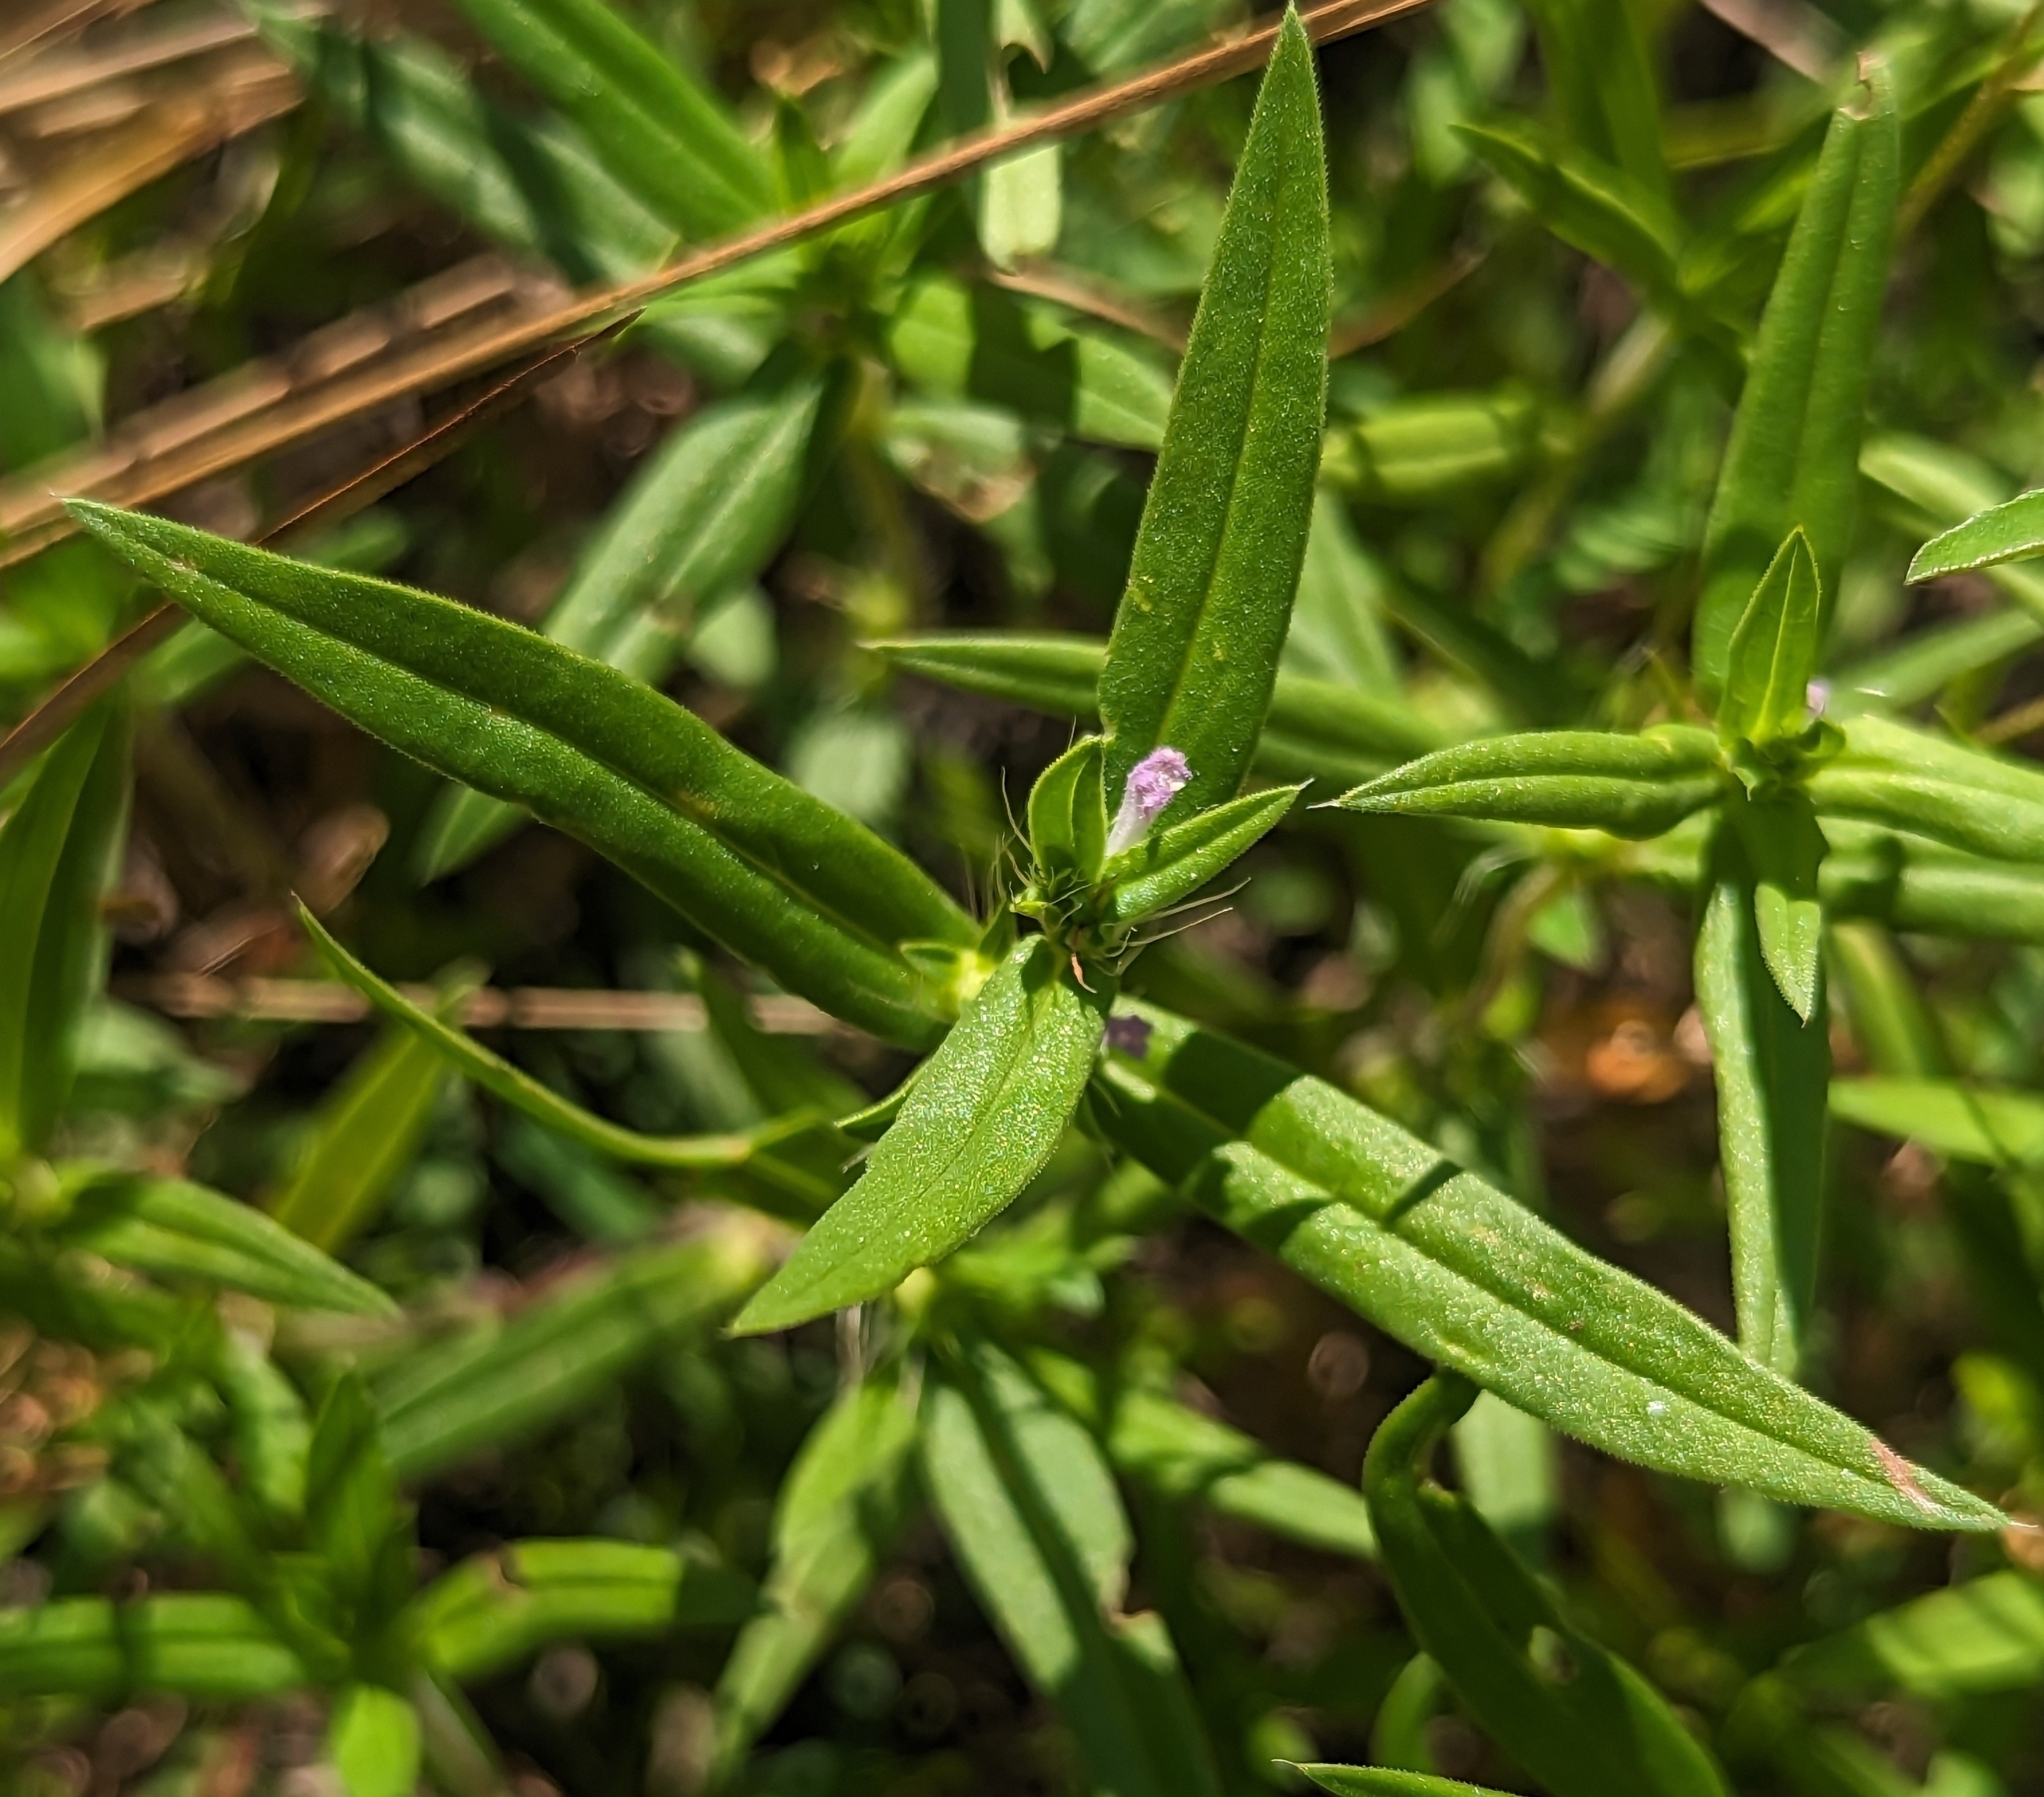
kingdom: Plantae
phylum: Tracheophyta
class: Magnoliopsida
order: Gentianales
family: Rubiaceae
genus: Hexasepalum
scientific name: Hexasepalum teres
